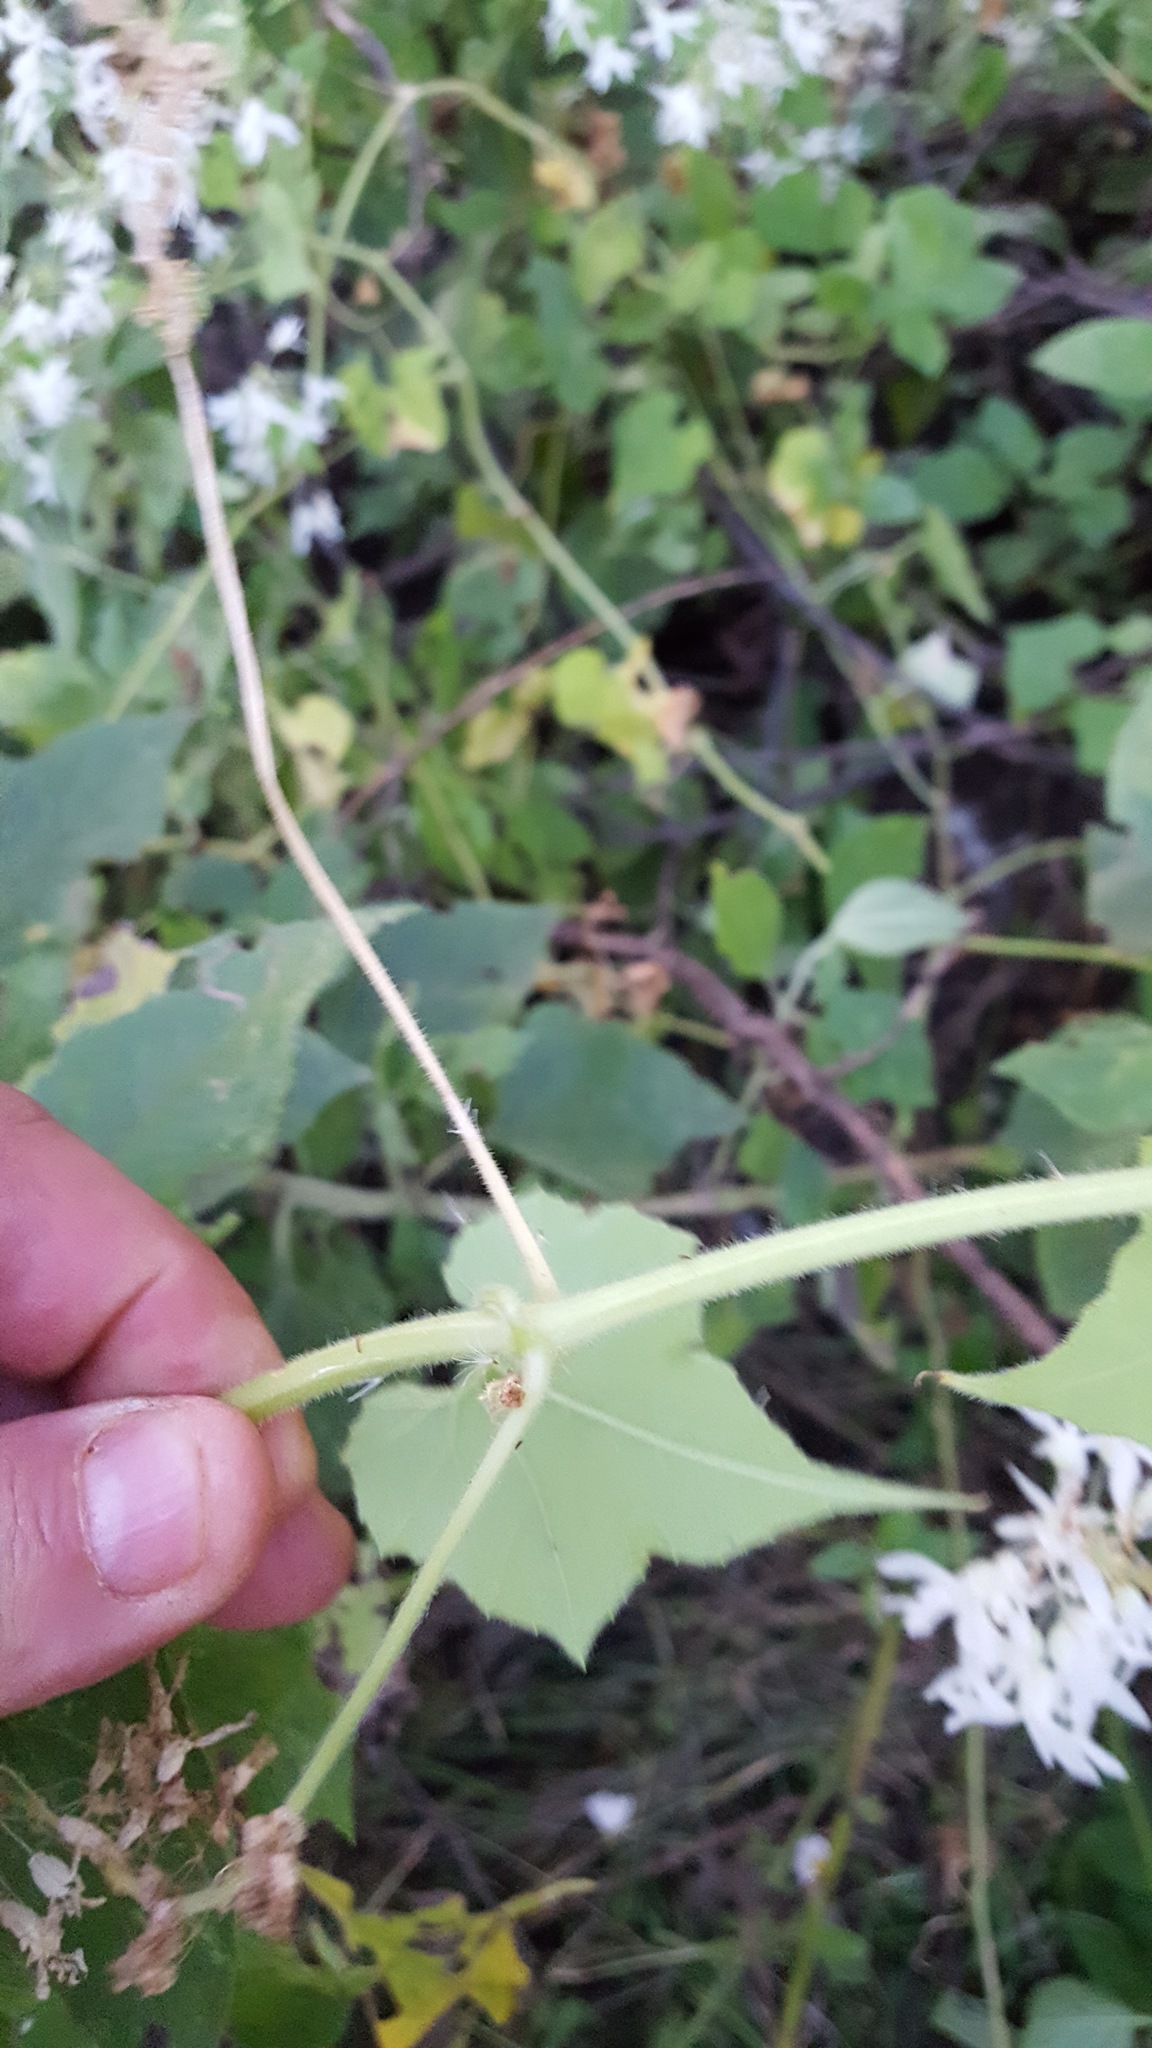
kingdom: Plantae
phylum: Tracheophyta
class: Magnoliopsida
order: Cucurbitales
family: Cucurbitaceae
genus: Echinopepon
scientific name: Echinopepon pubescens
